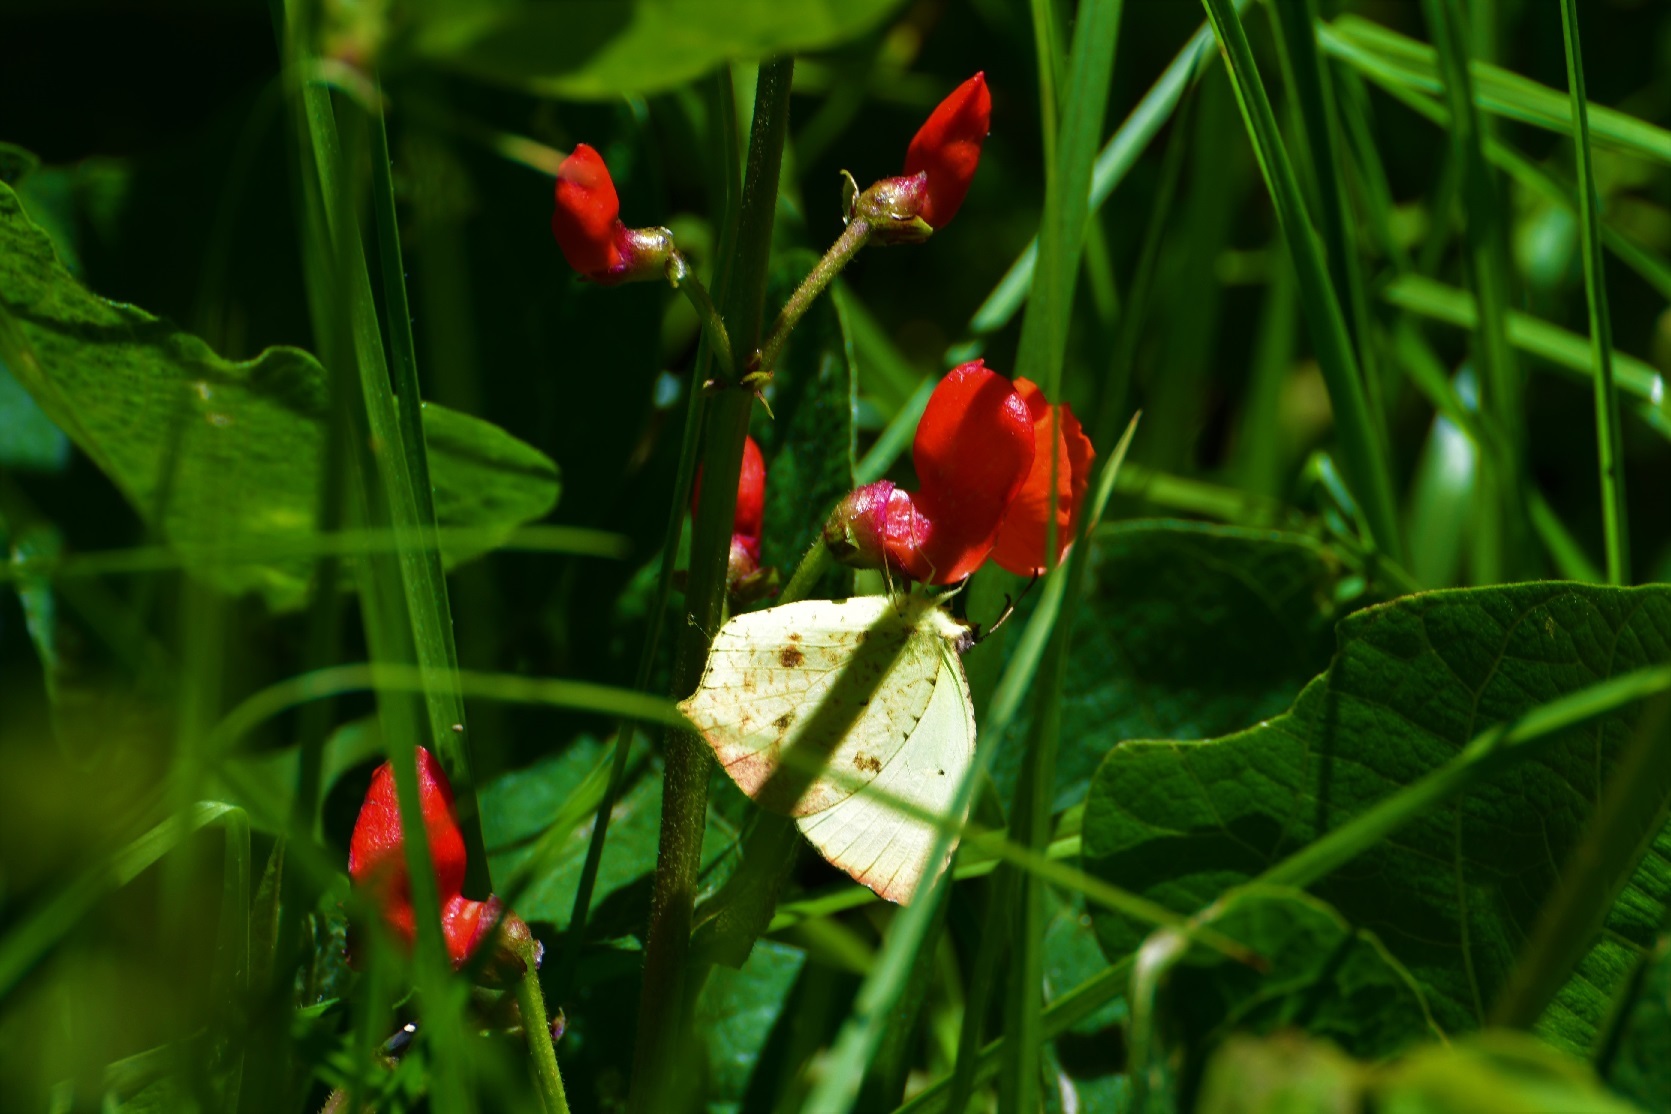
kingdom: Animalia
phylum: Arthropoda
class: Insecta
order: Lepidoptera
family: Pieridae
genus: Abaeis
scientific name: Abaeis salome
